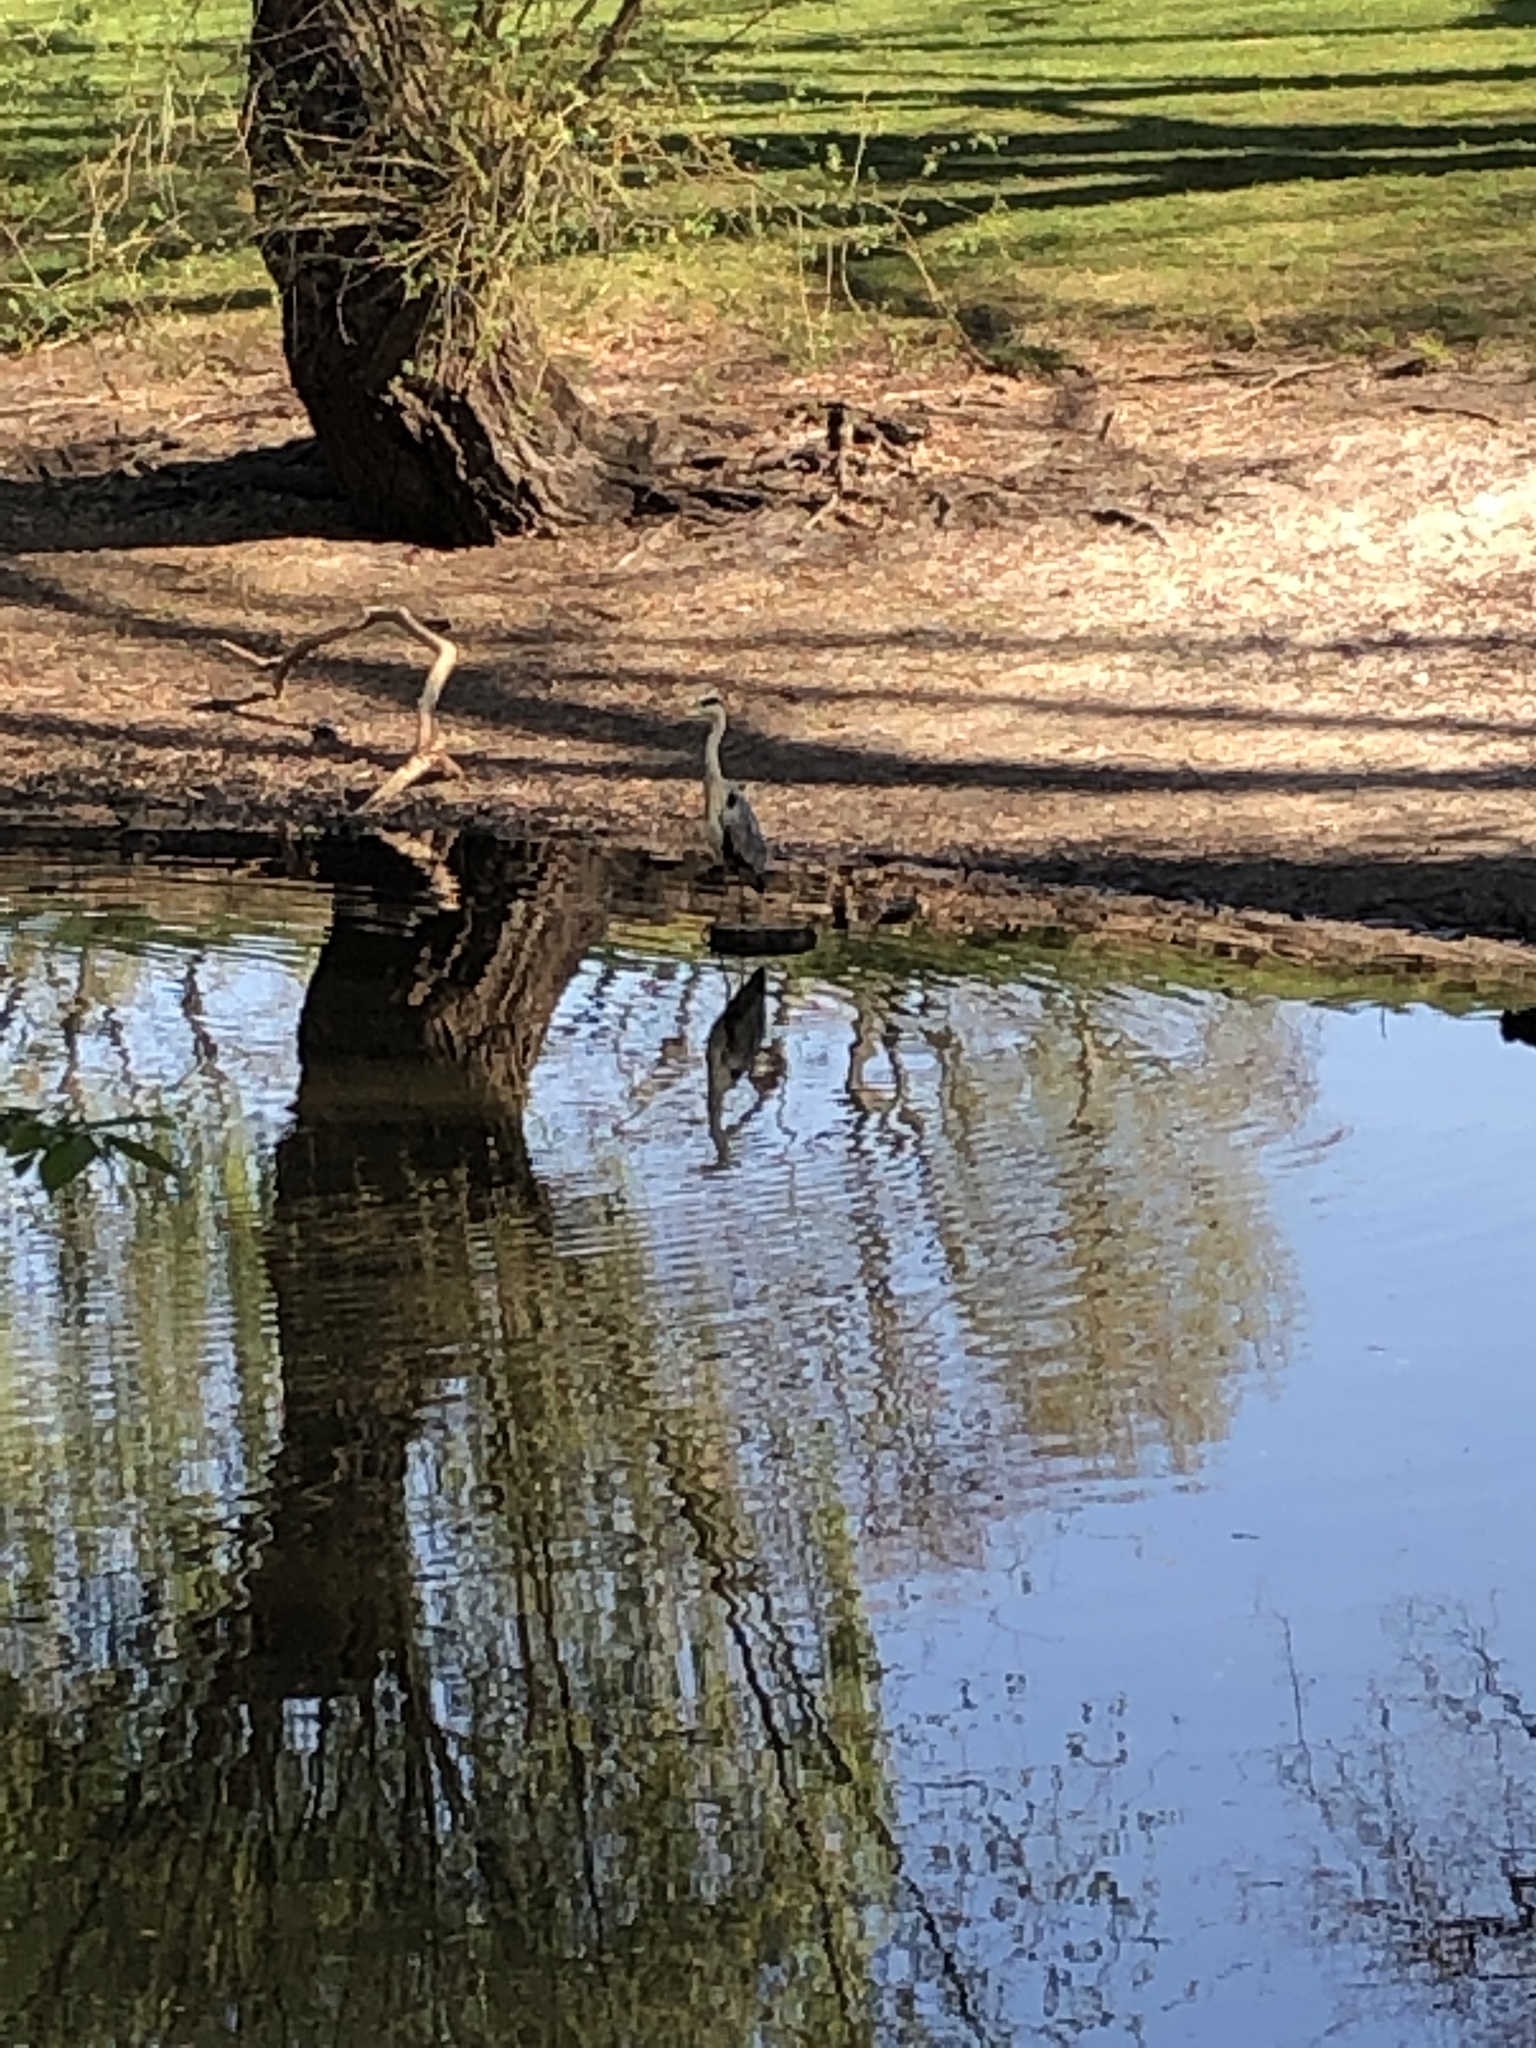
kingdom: Animalia
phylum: Chordata
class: Aves
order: Pelecaniformes
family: Ardeidae
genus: Ardea
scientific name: Ardea cinerea
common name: Grey heron
